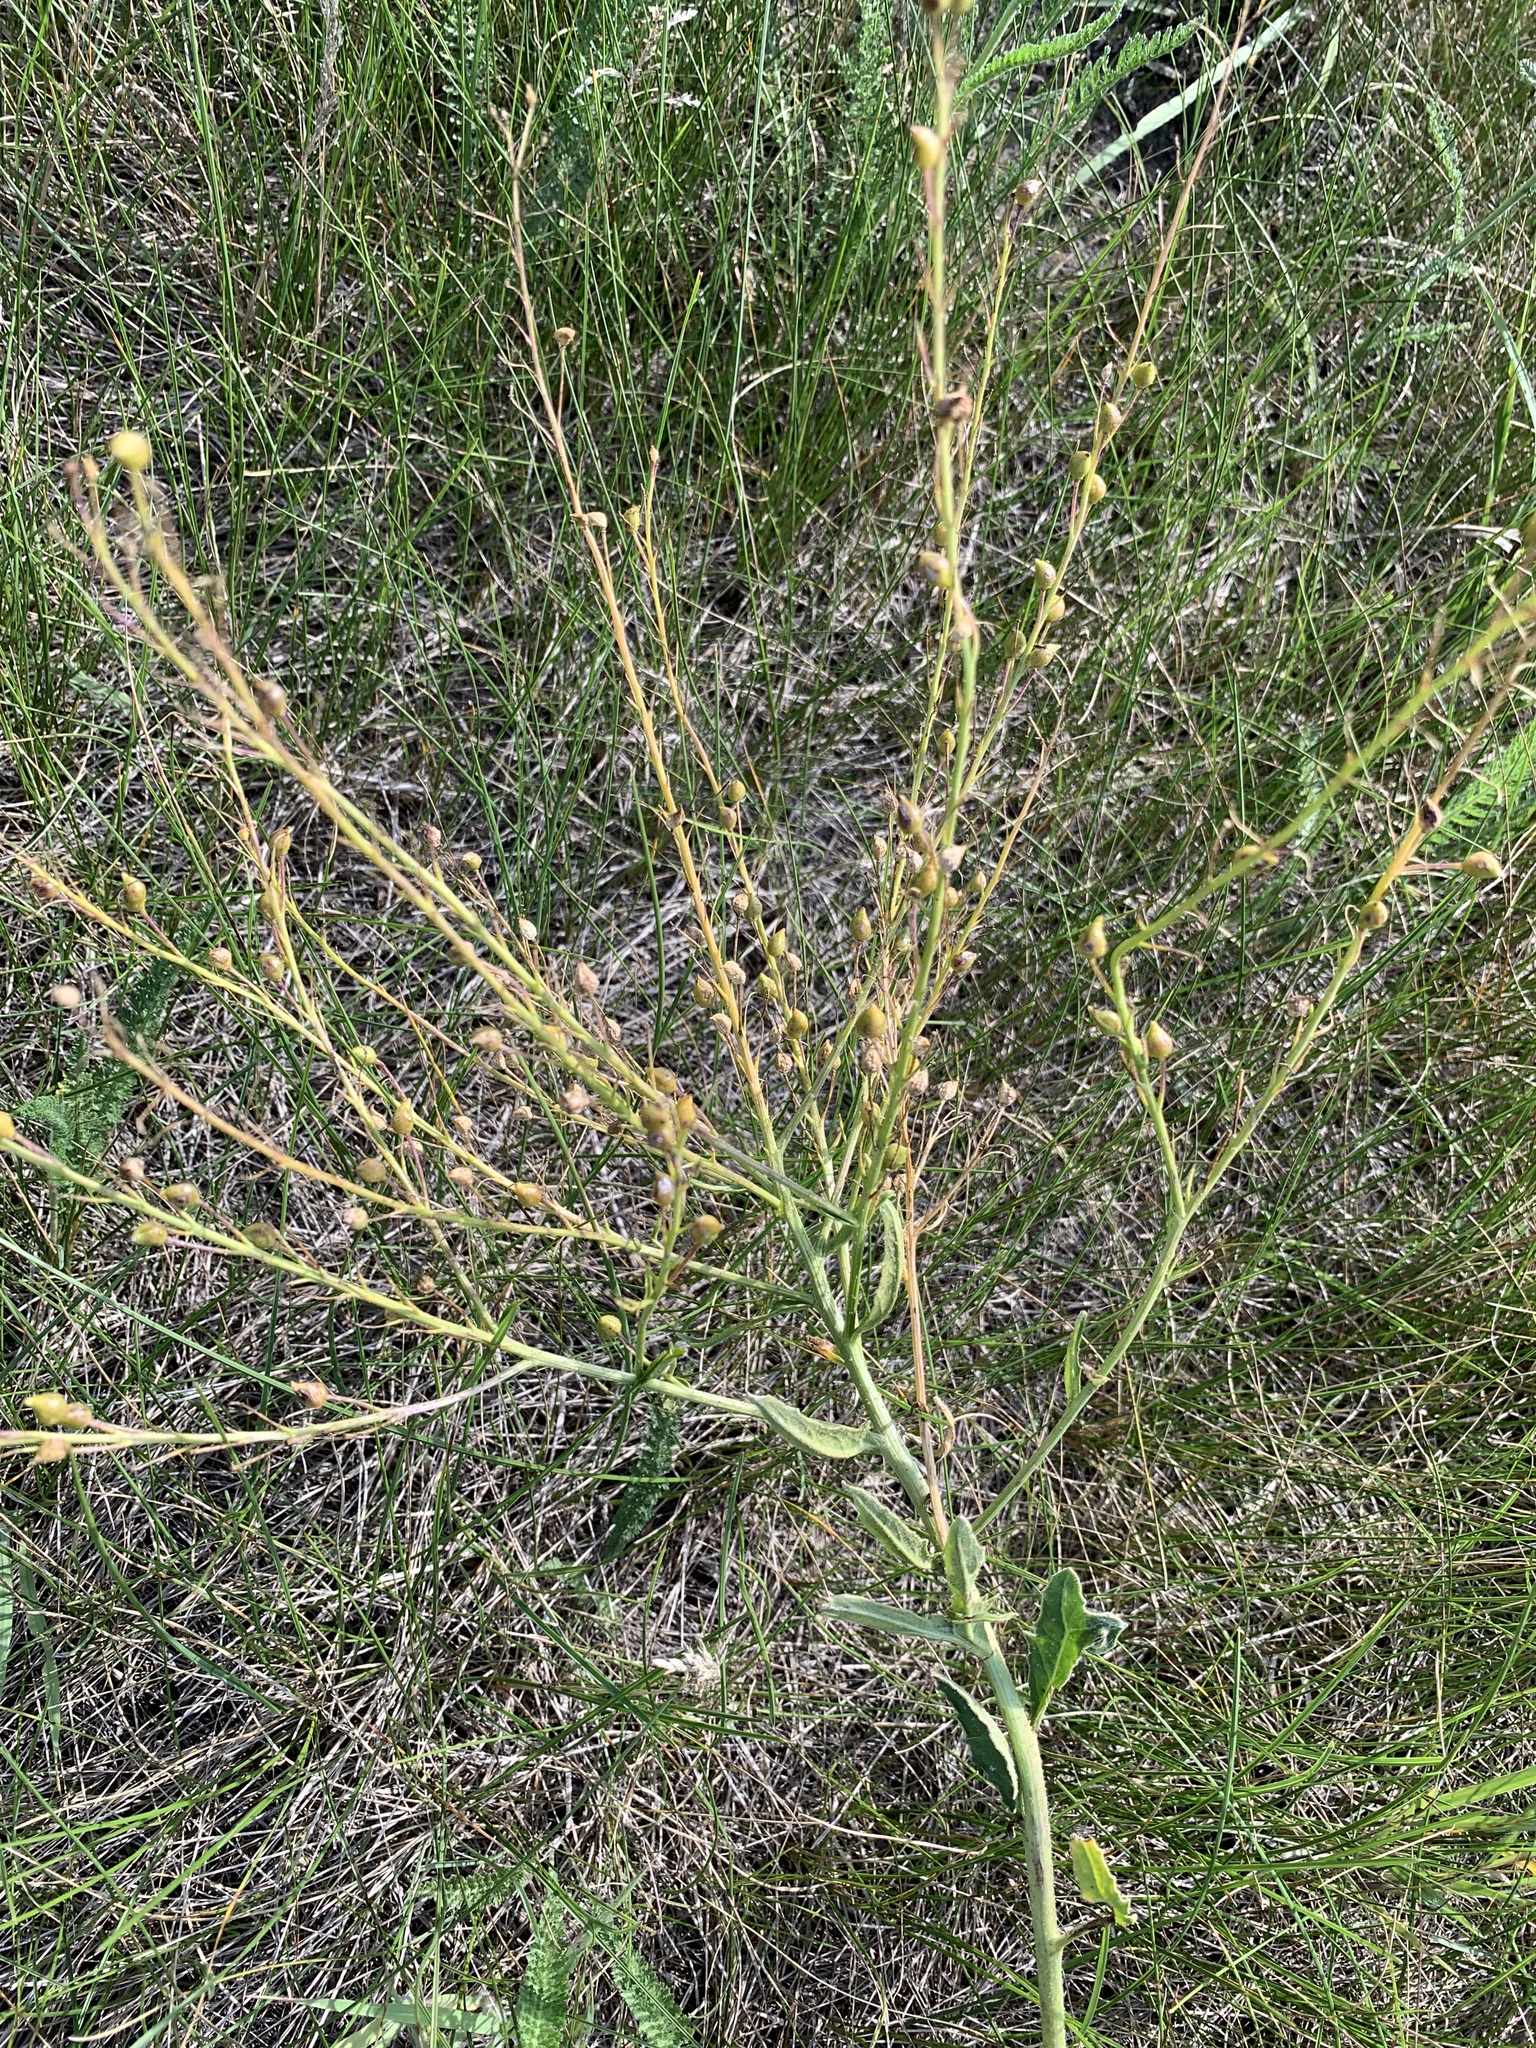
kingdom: Plantae
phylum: Tracheophyta
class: Magnoliopsida
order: Brassicales
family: Brassicaceae
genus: Bunias
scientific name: Bunias orientalis
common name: Warty-cabbage
